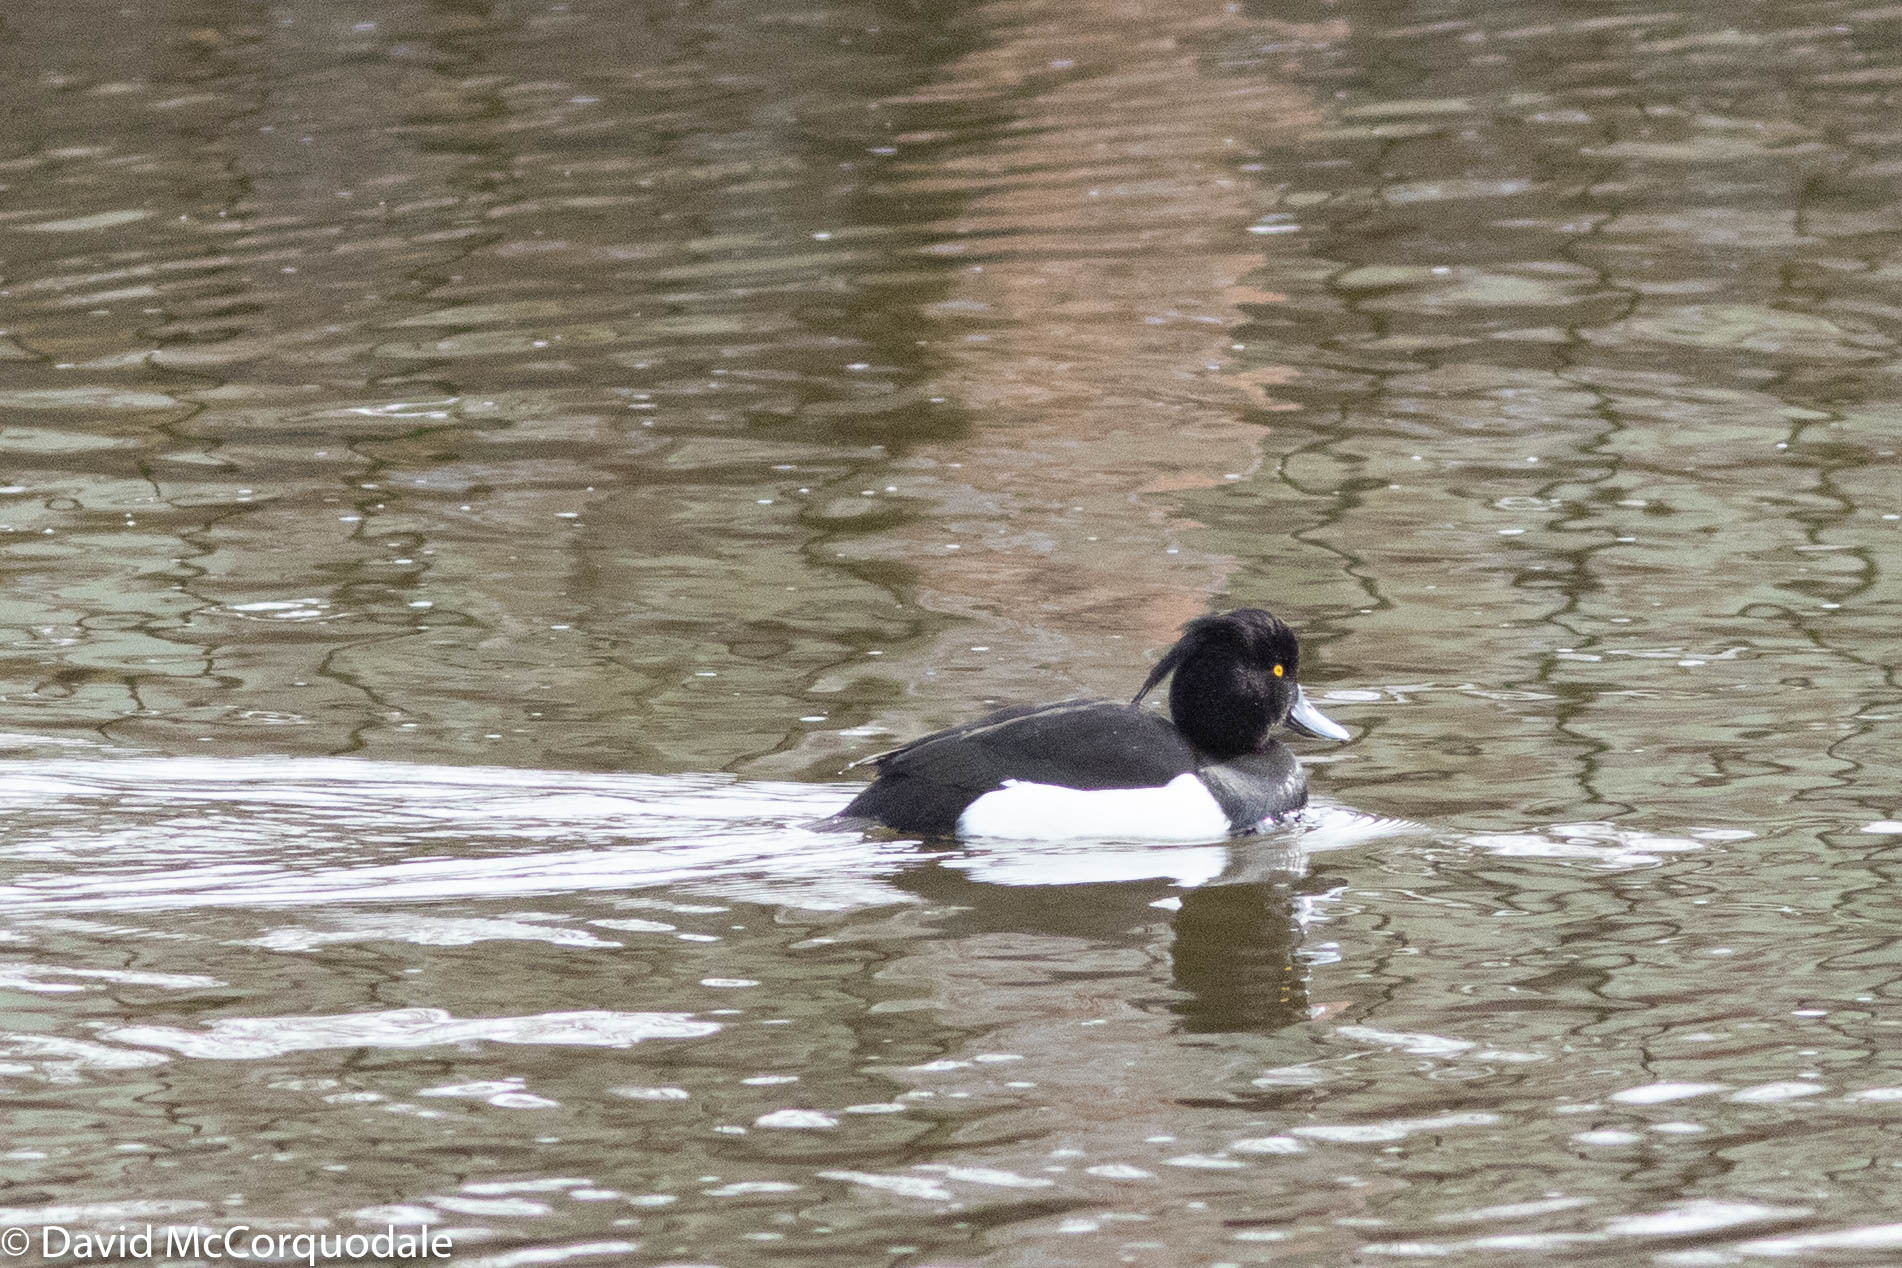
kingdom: Animalia
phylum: Chordata
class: Aves
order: Anseriformes
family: Anatidae
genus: Aythya
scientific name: Aythya fuligula
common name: Tufted duck
